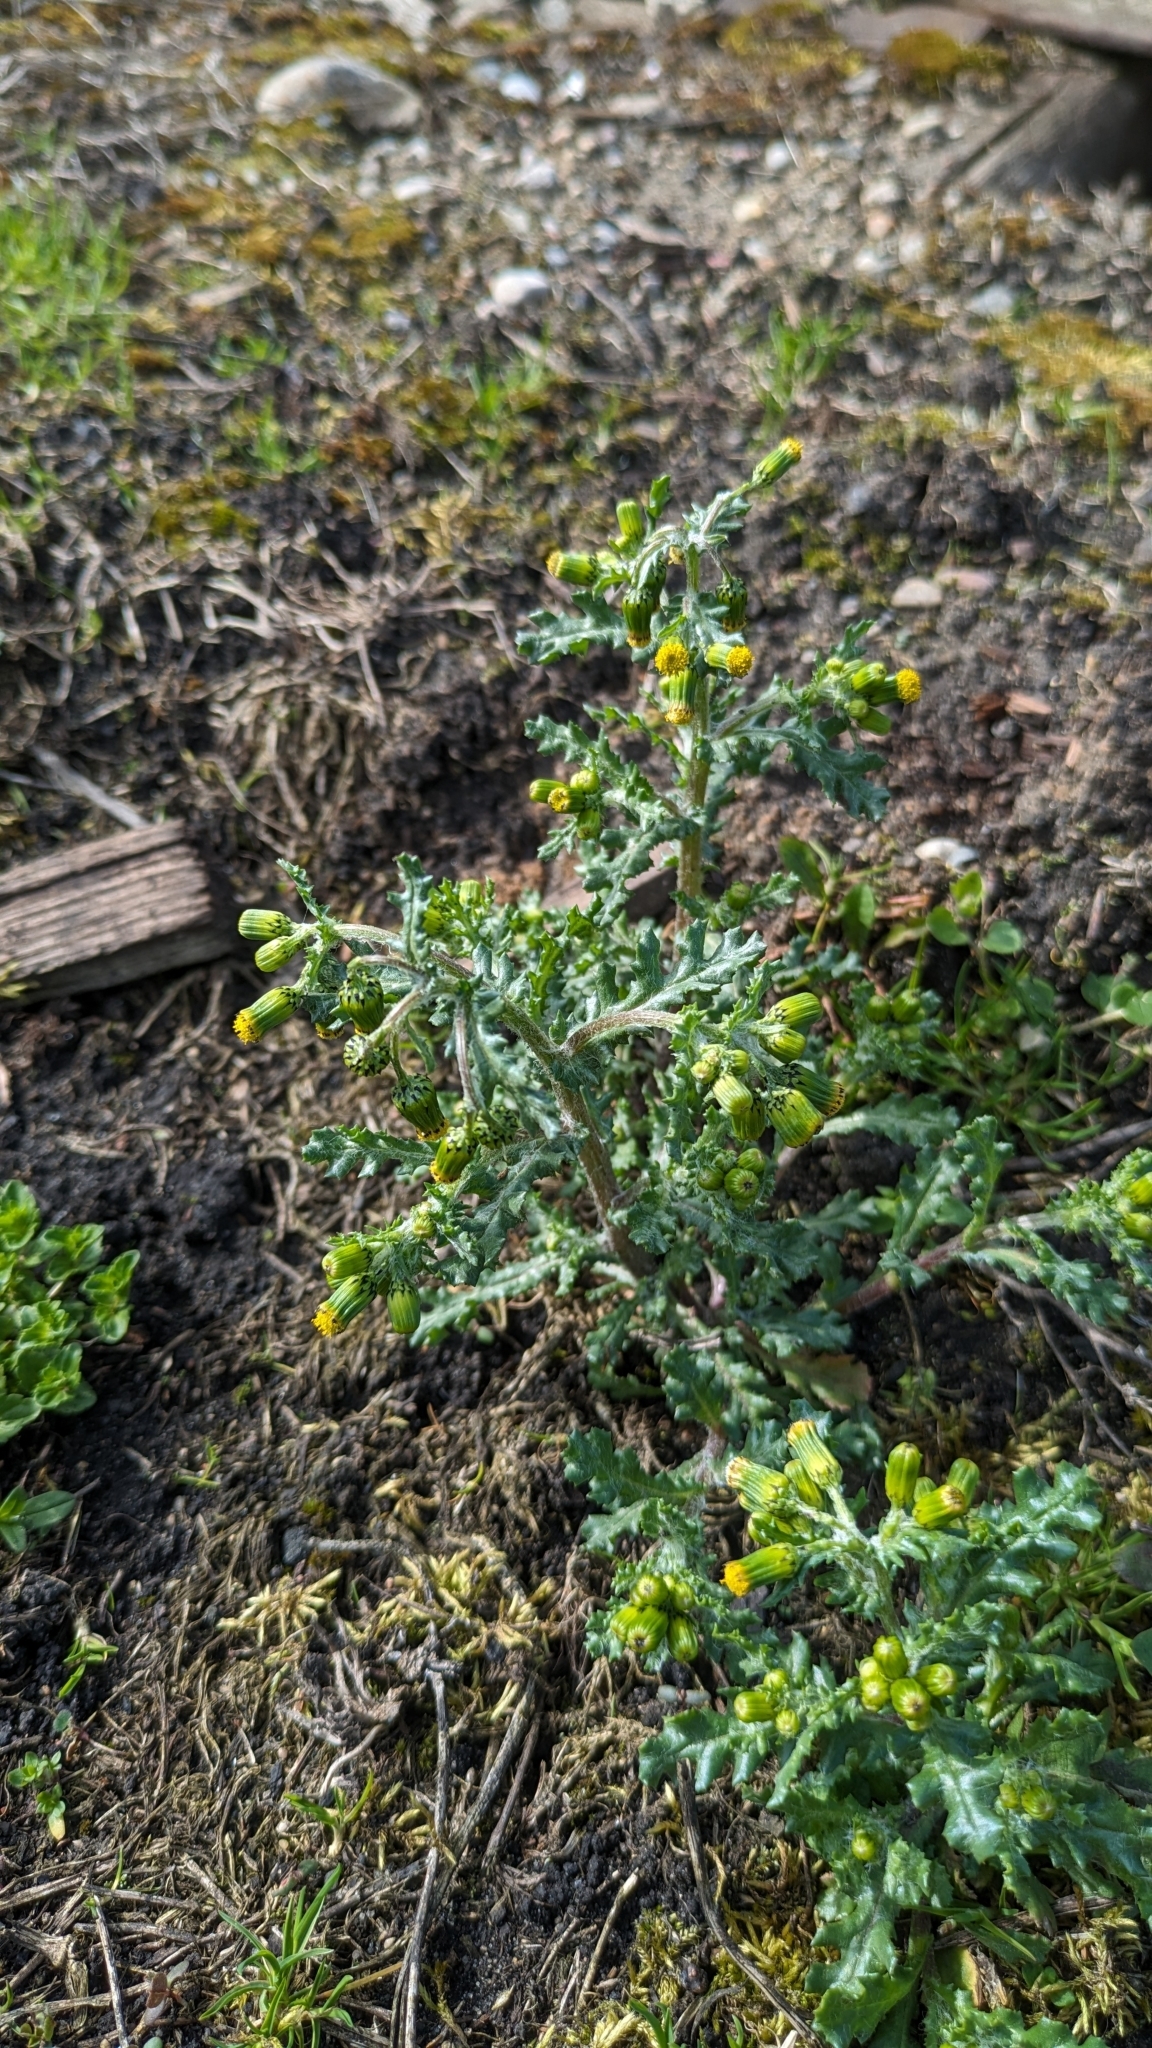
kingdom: Plantae
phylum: Tracheophyta
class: Magnoliopsida
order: Asterales
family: Asteraceae
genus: Senecio
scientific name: Senecio vulgaris
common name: Old-man-in-the-spring
